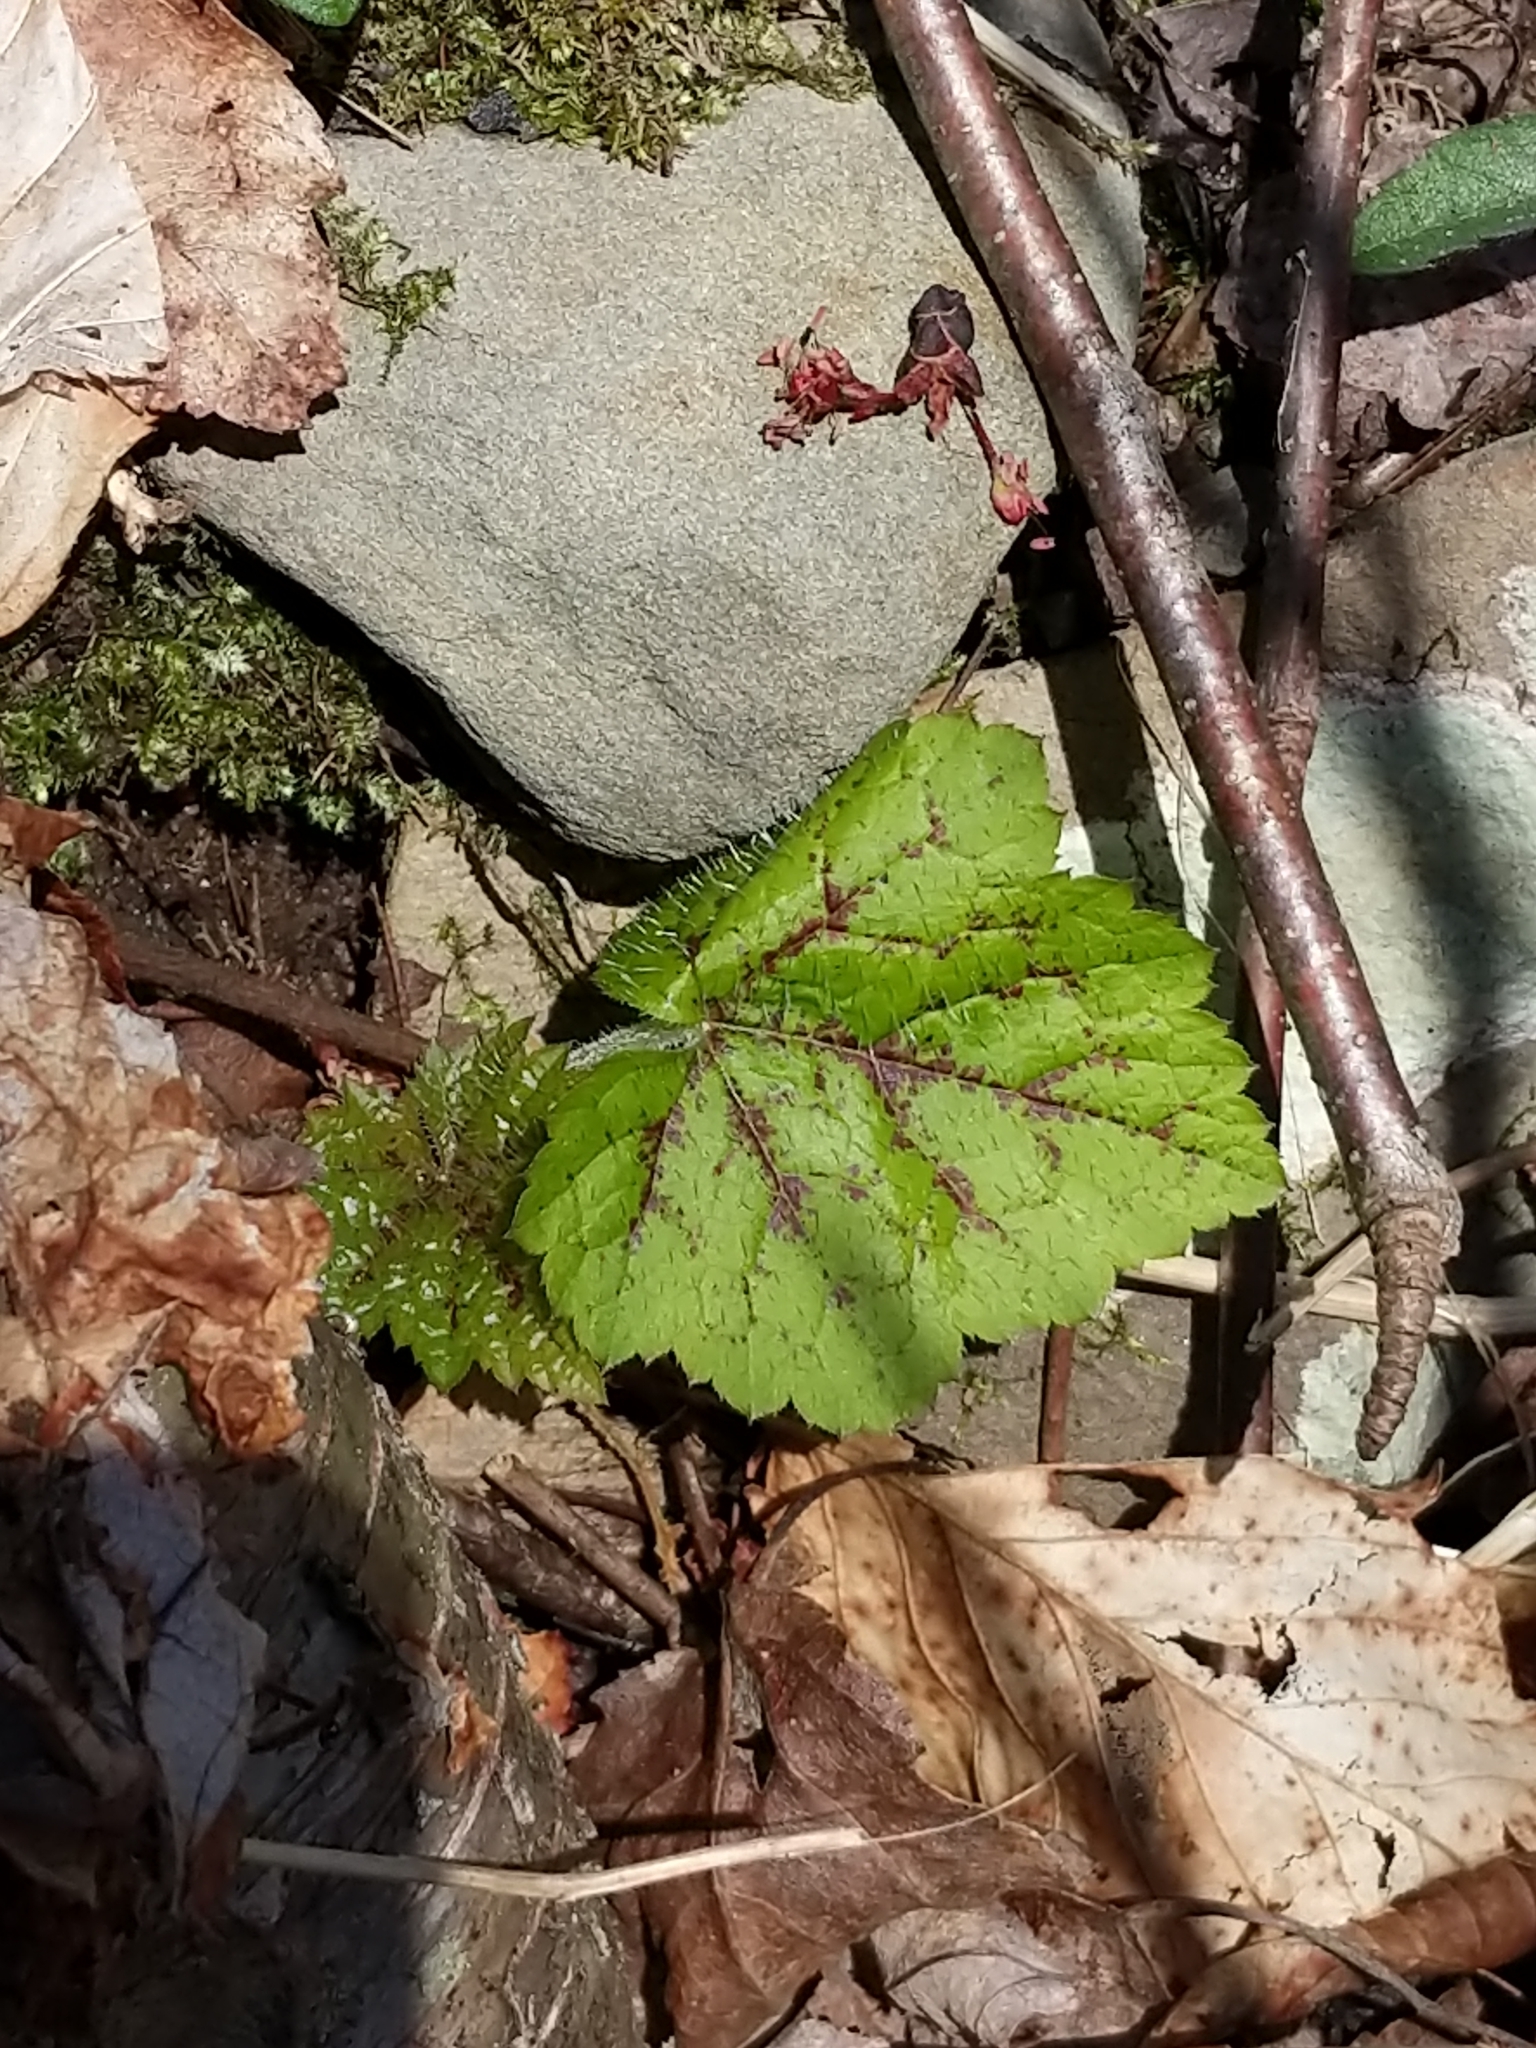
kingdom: Plantae
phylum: Tracheophyta
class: Magnoliopsida
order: Saxifragales
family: Saxifragaceae
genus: Tiarella
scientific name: Tiarella stolonifera
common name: Stoloniferous foamflower
